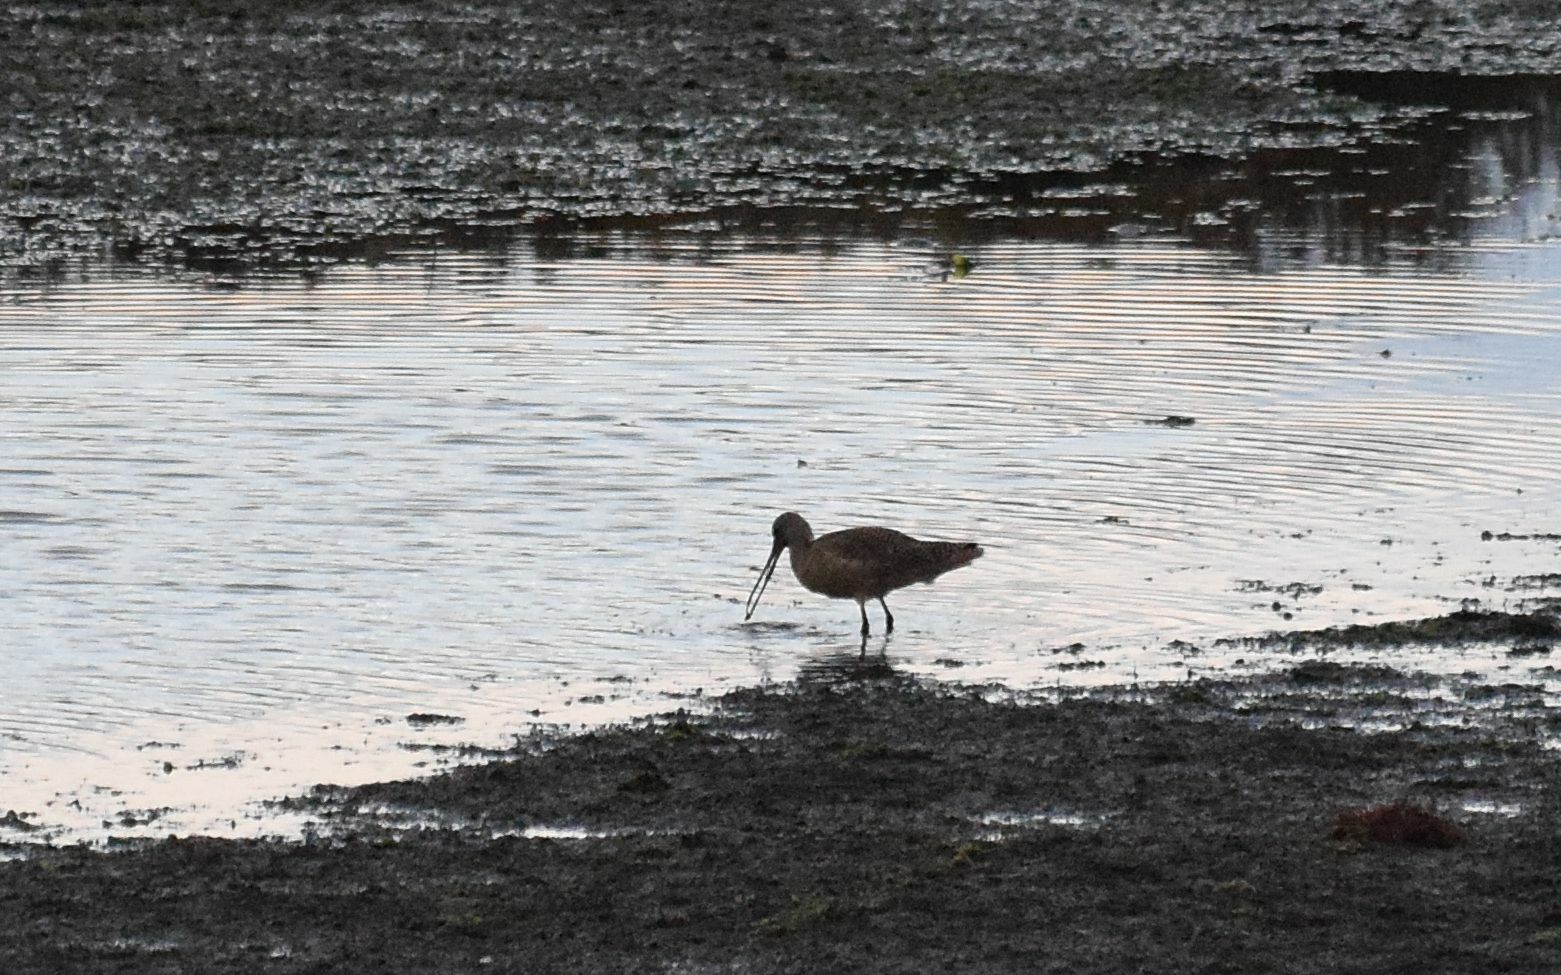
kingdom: Animalia
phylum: Chordata
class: Aves
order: Charadriiformes
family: Scolopacidae
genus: Limosa
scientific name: Limosa fedoa
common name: Marbled godwit
